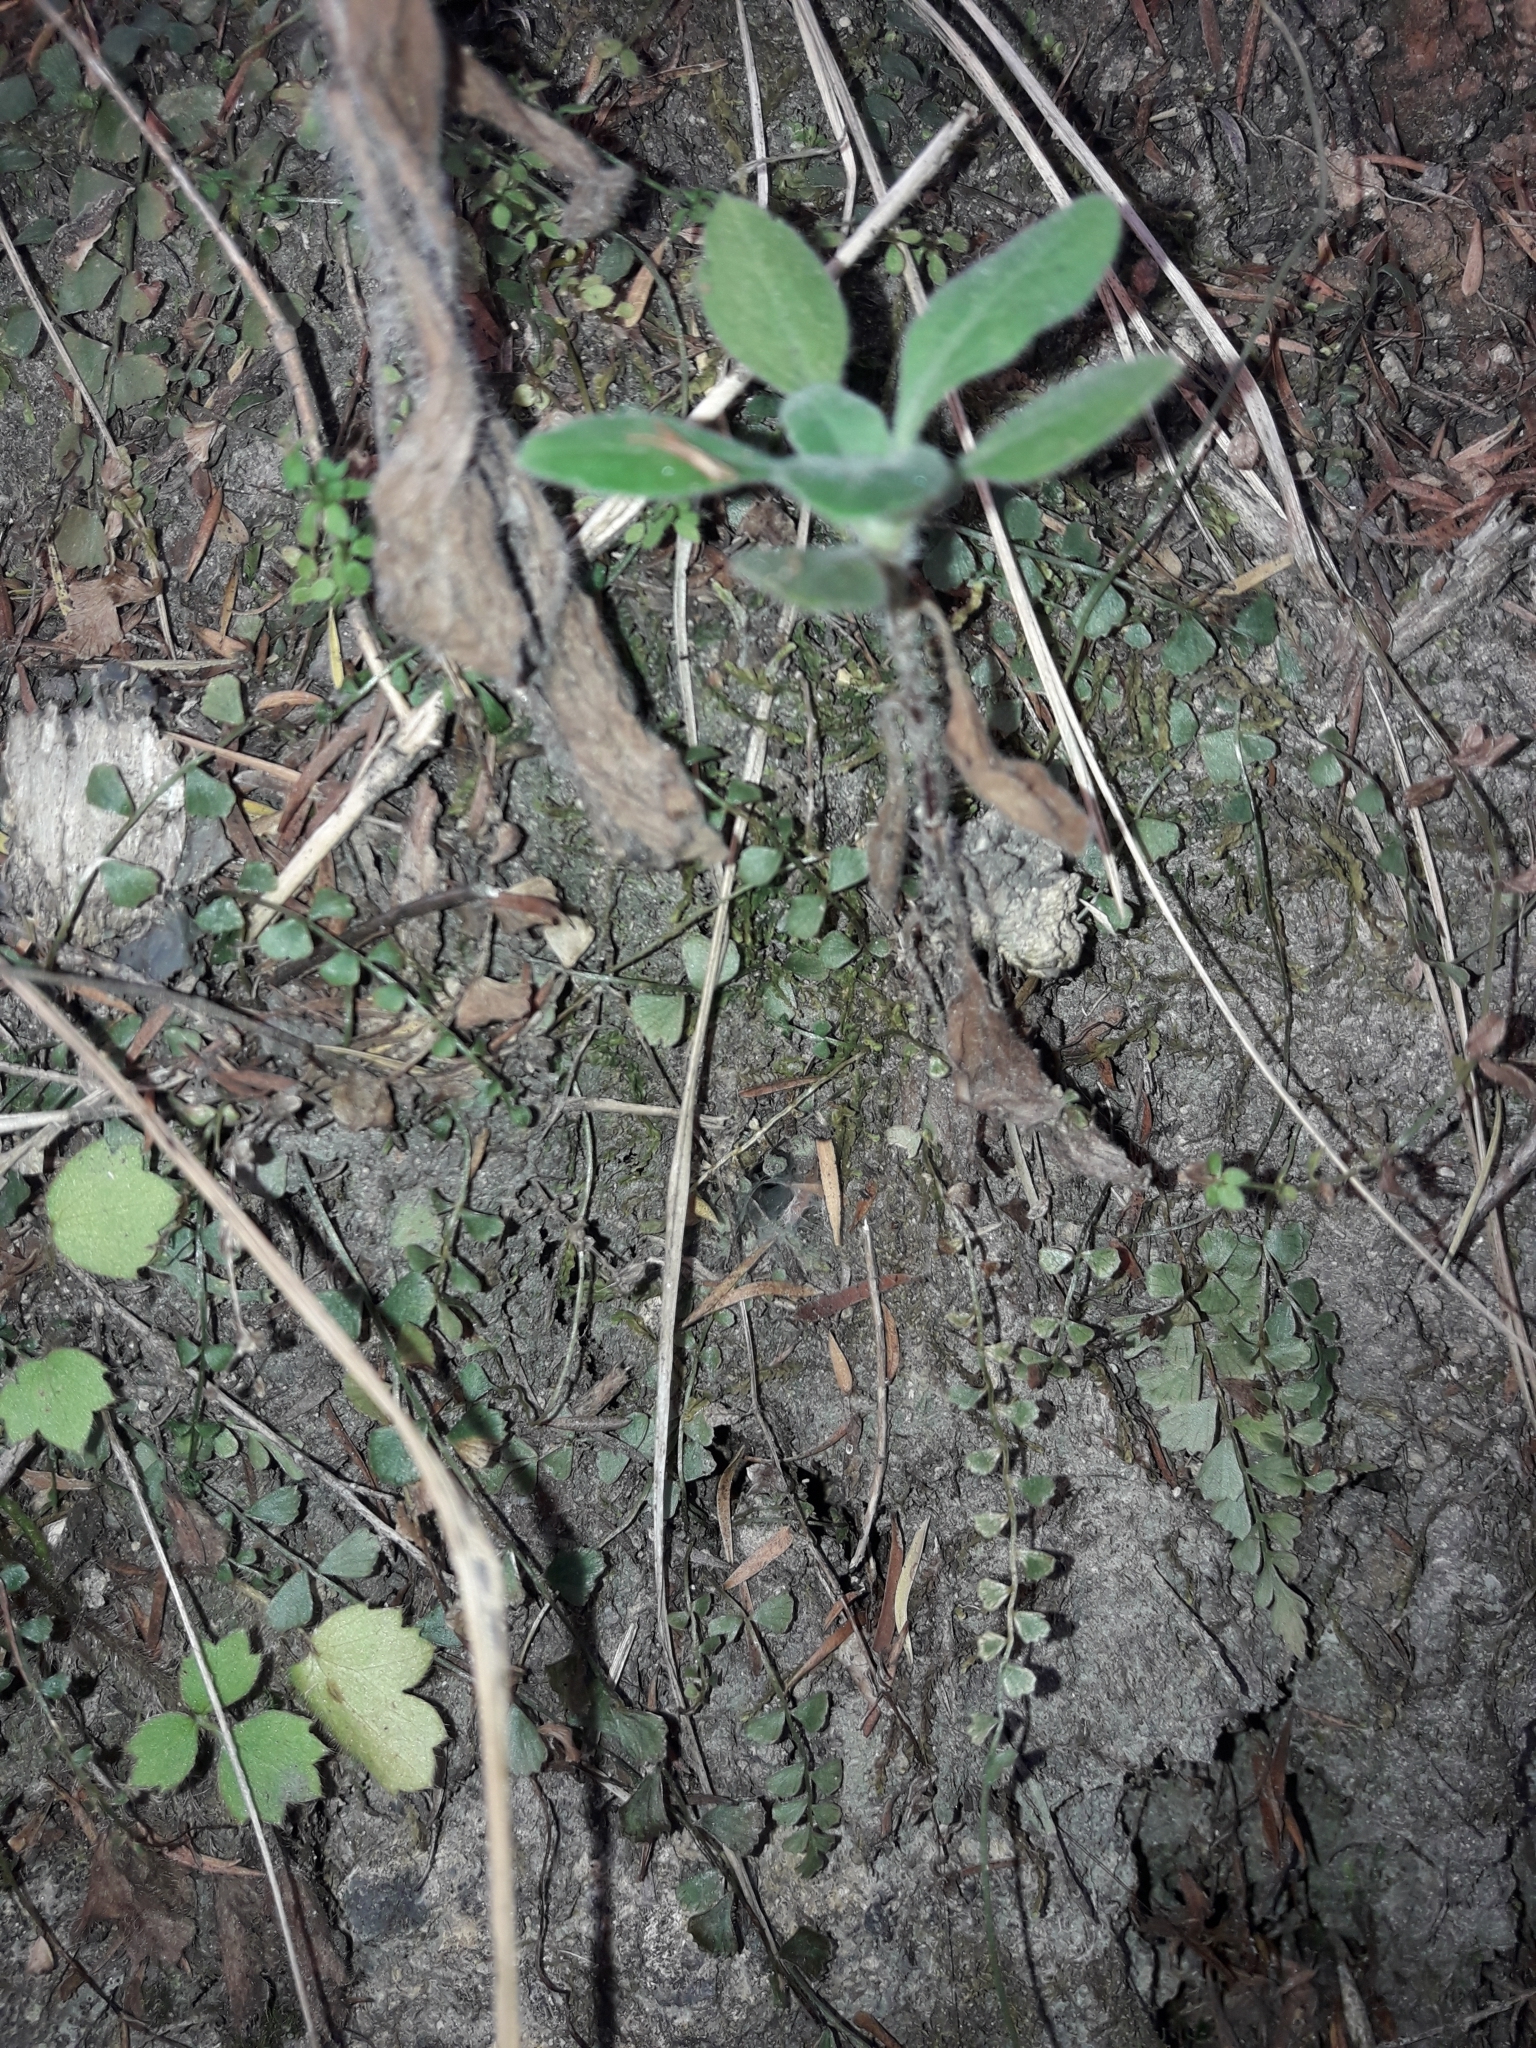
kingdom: Plantae
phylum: Tracheophyta
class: Polypodiopsida
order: Polypodiales
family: Aspleniaceae
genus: Asplenium
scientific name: Asplenium flabellifolium
